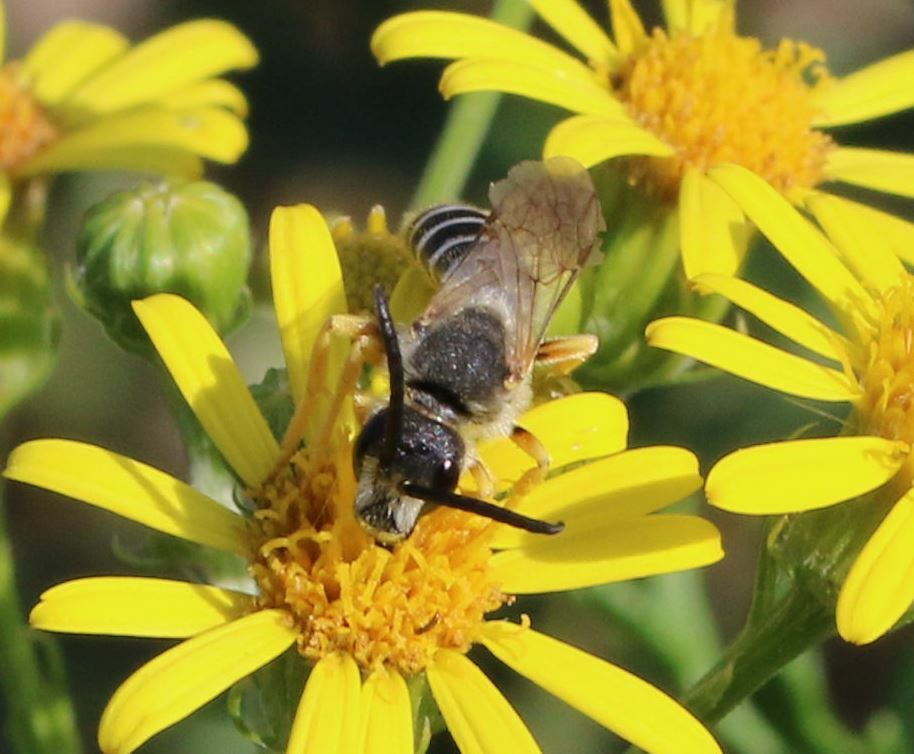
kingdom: Animalia
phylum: Arthropoda
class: Insecta
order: Hymenoptera
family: Halictidae
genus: Halictus
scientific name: Halictus scabiosae
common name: Great banded furrow bee
